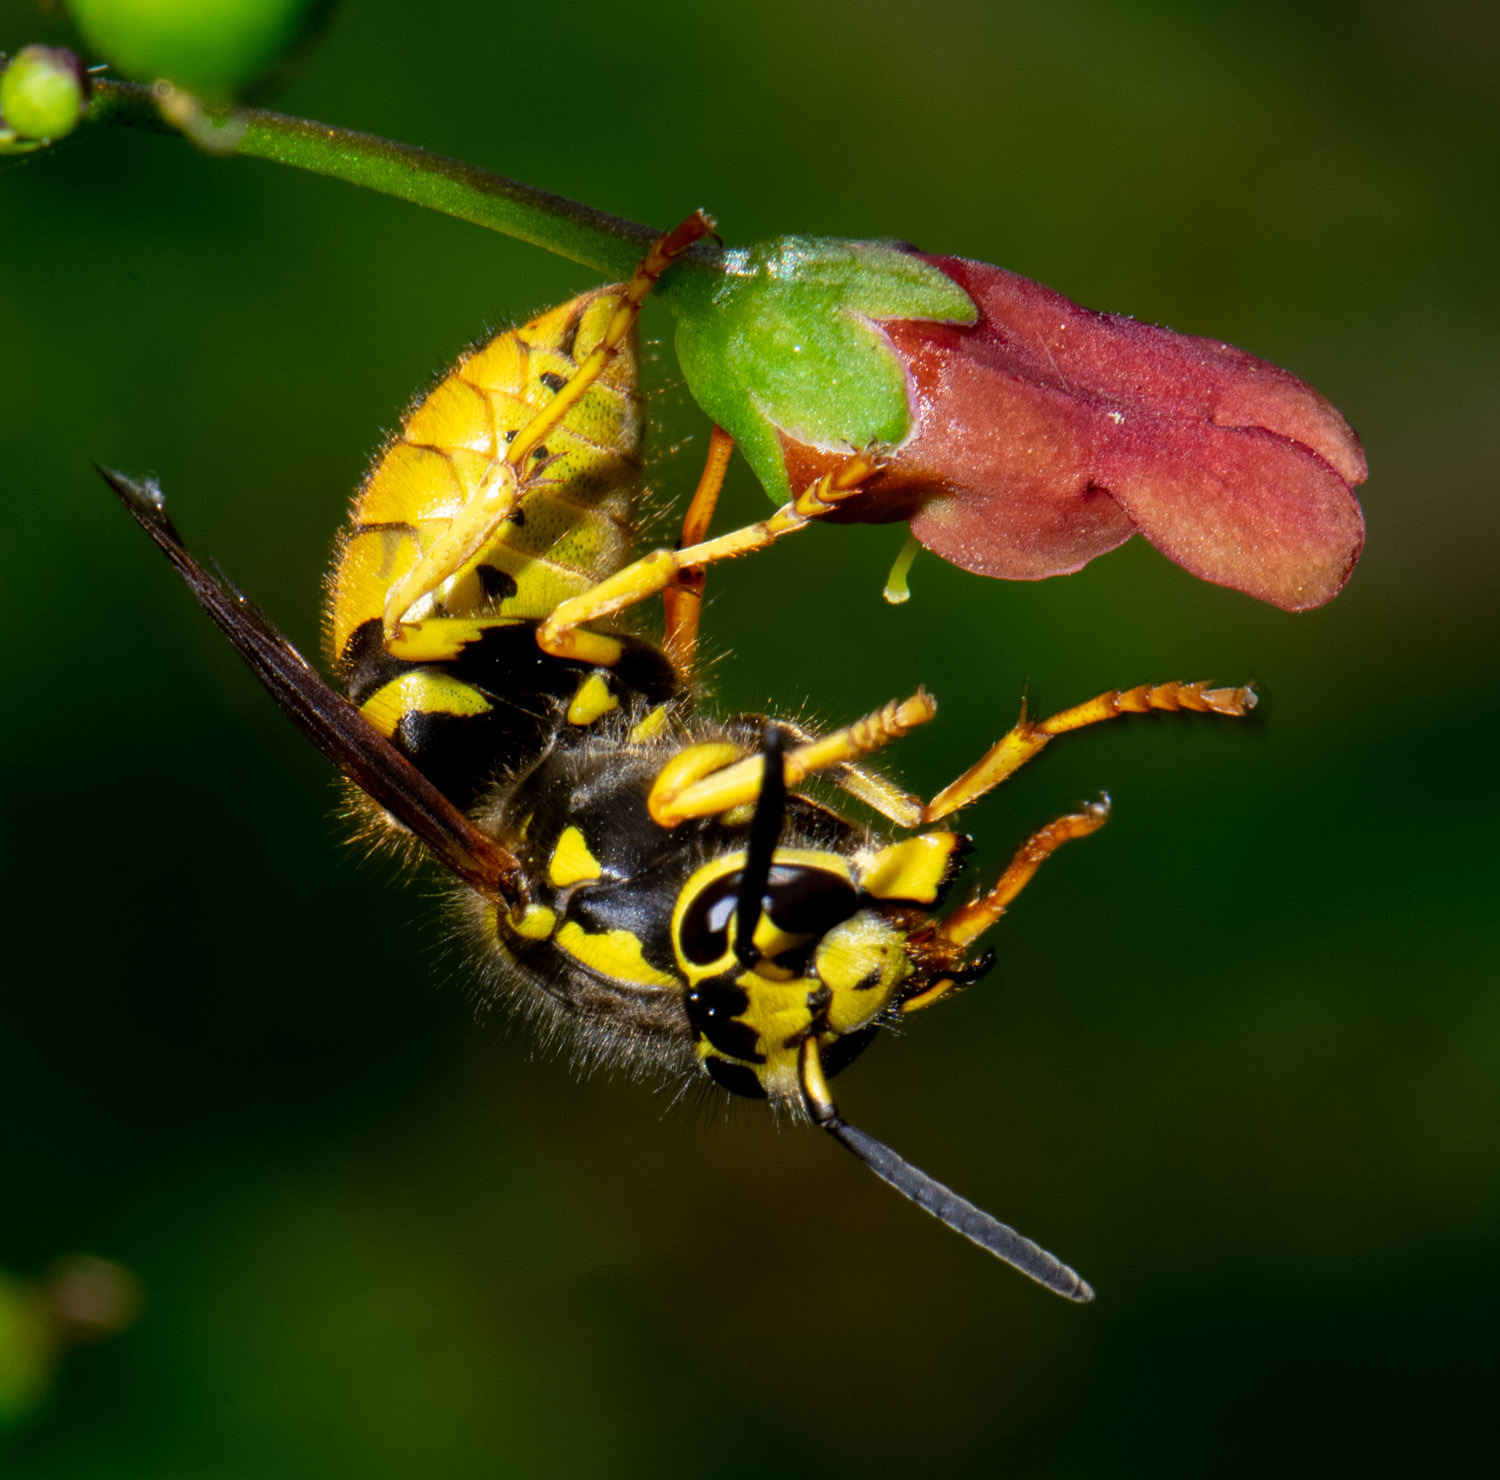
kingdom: Animalia
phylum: Arthropoda
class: Insecta
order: Hymenoptera
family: Vespidae
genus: Vespula
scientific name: Vespula pensylvanica
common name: Western yellowjacket
